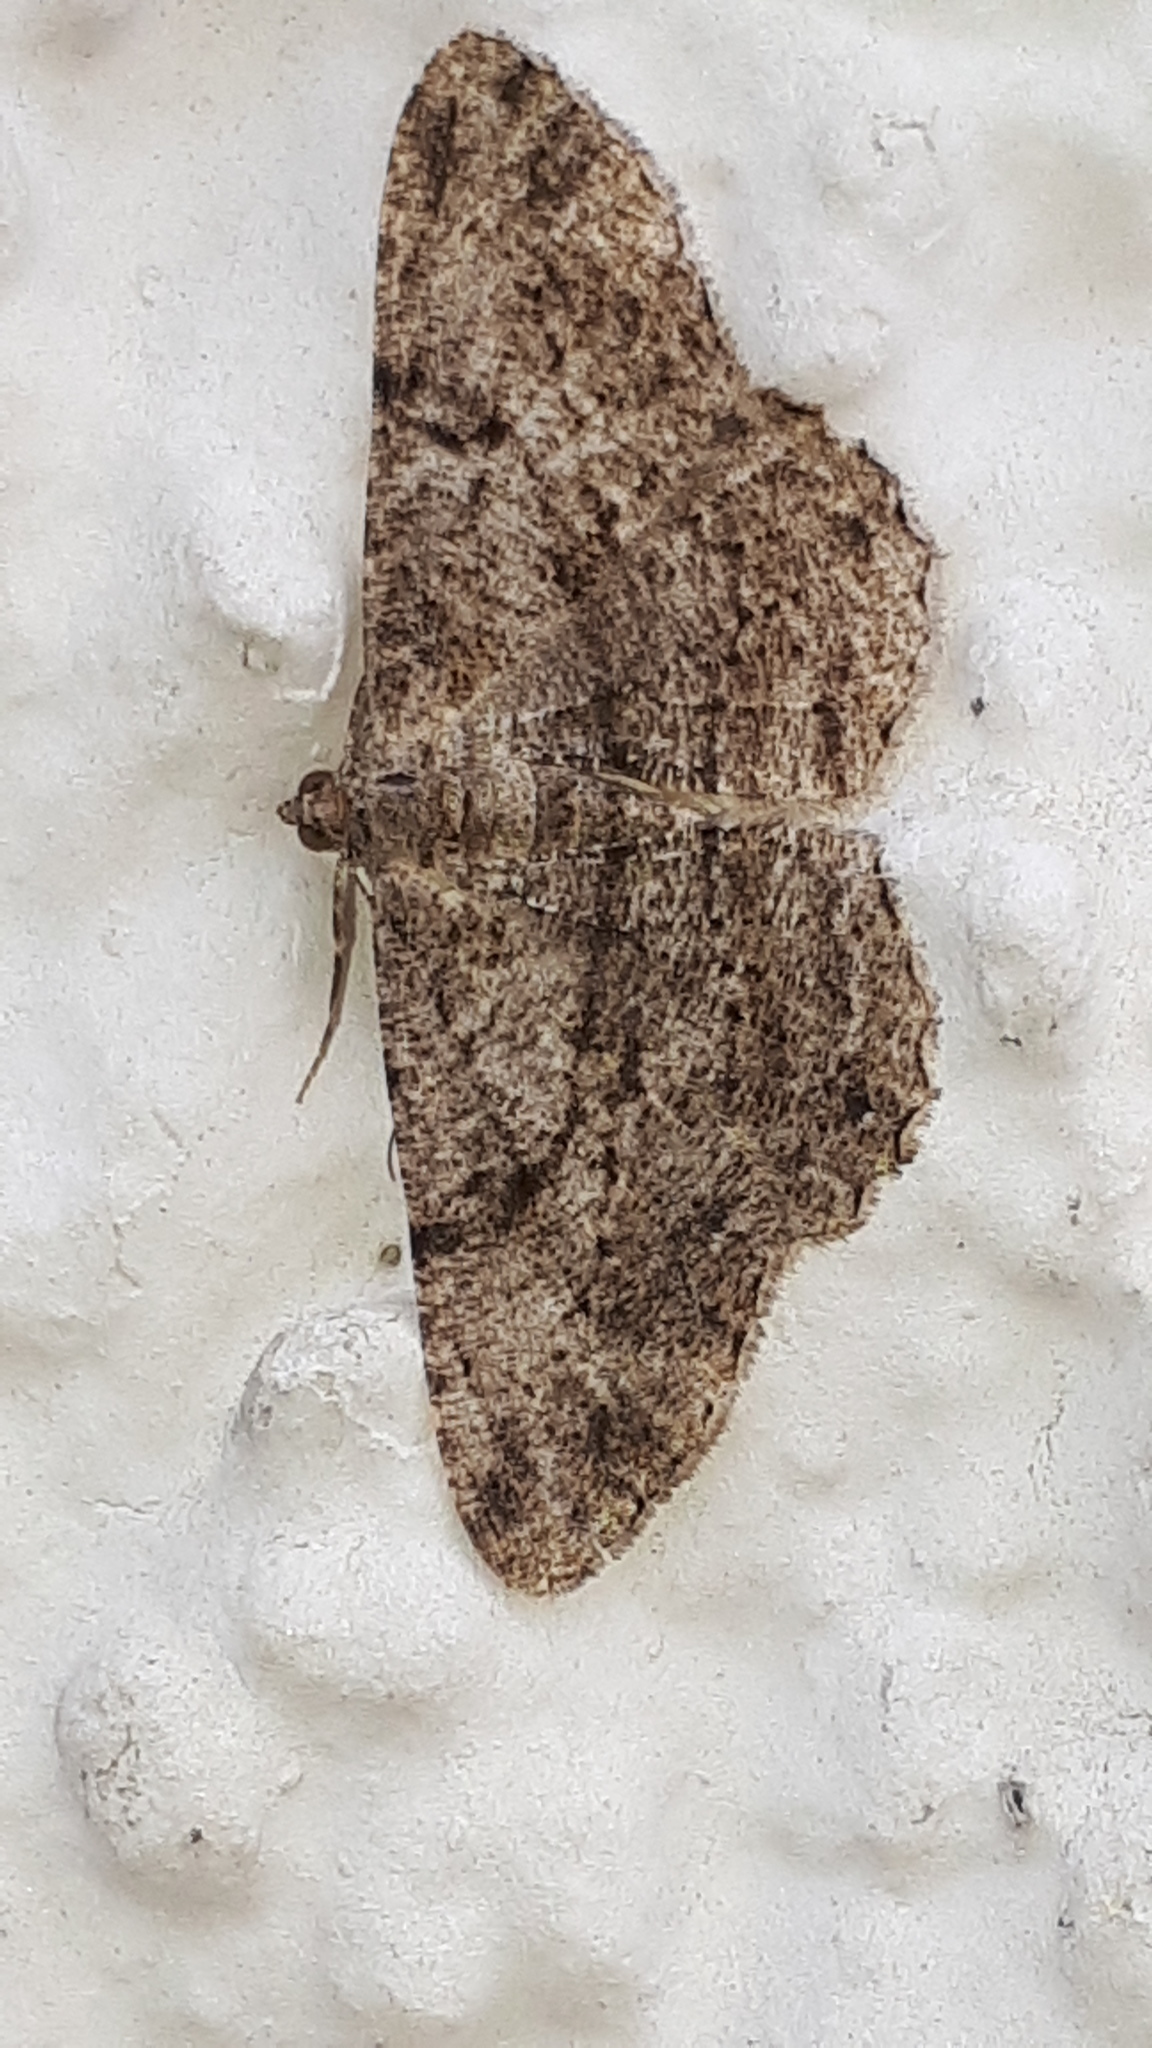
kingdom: Animalia
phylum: Arthropoda
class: Insecta
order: Lepidoptera
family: Geometridae
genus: Peribatodes
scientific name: Peribatodes rhomboidaria
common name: Willow beauty
